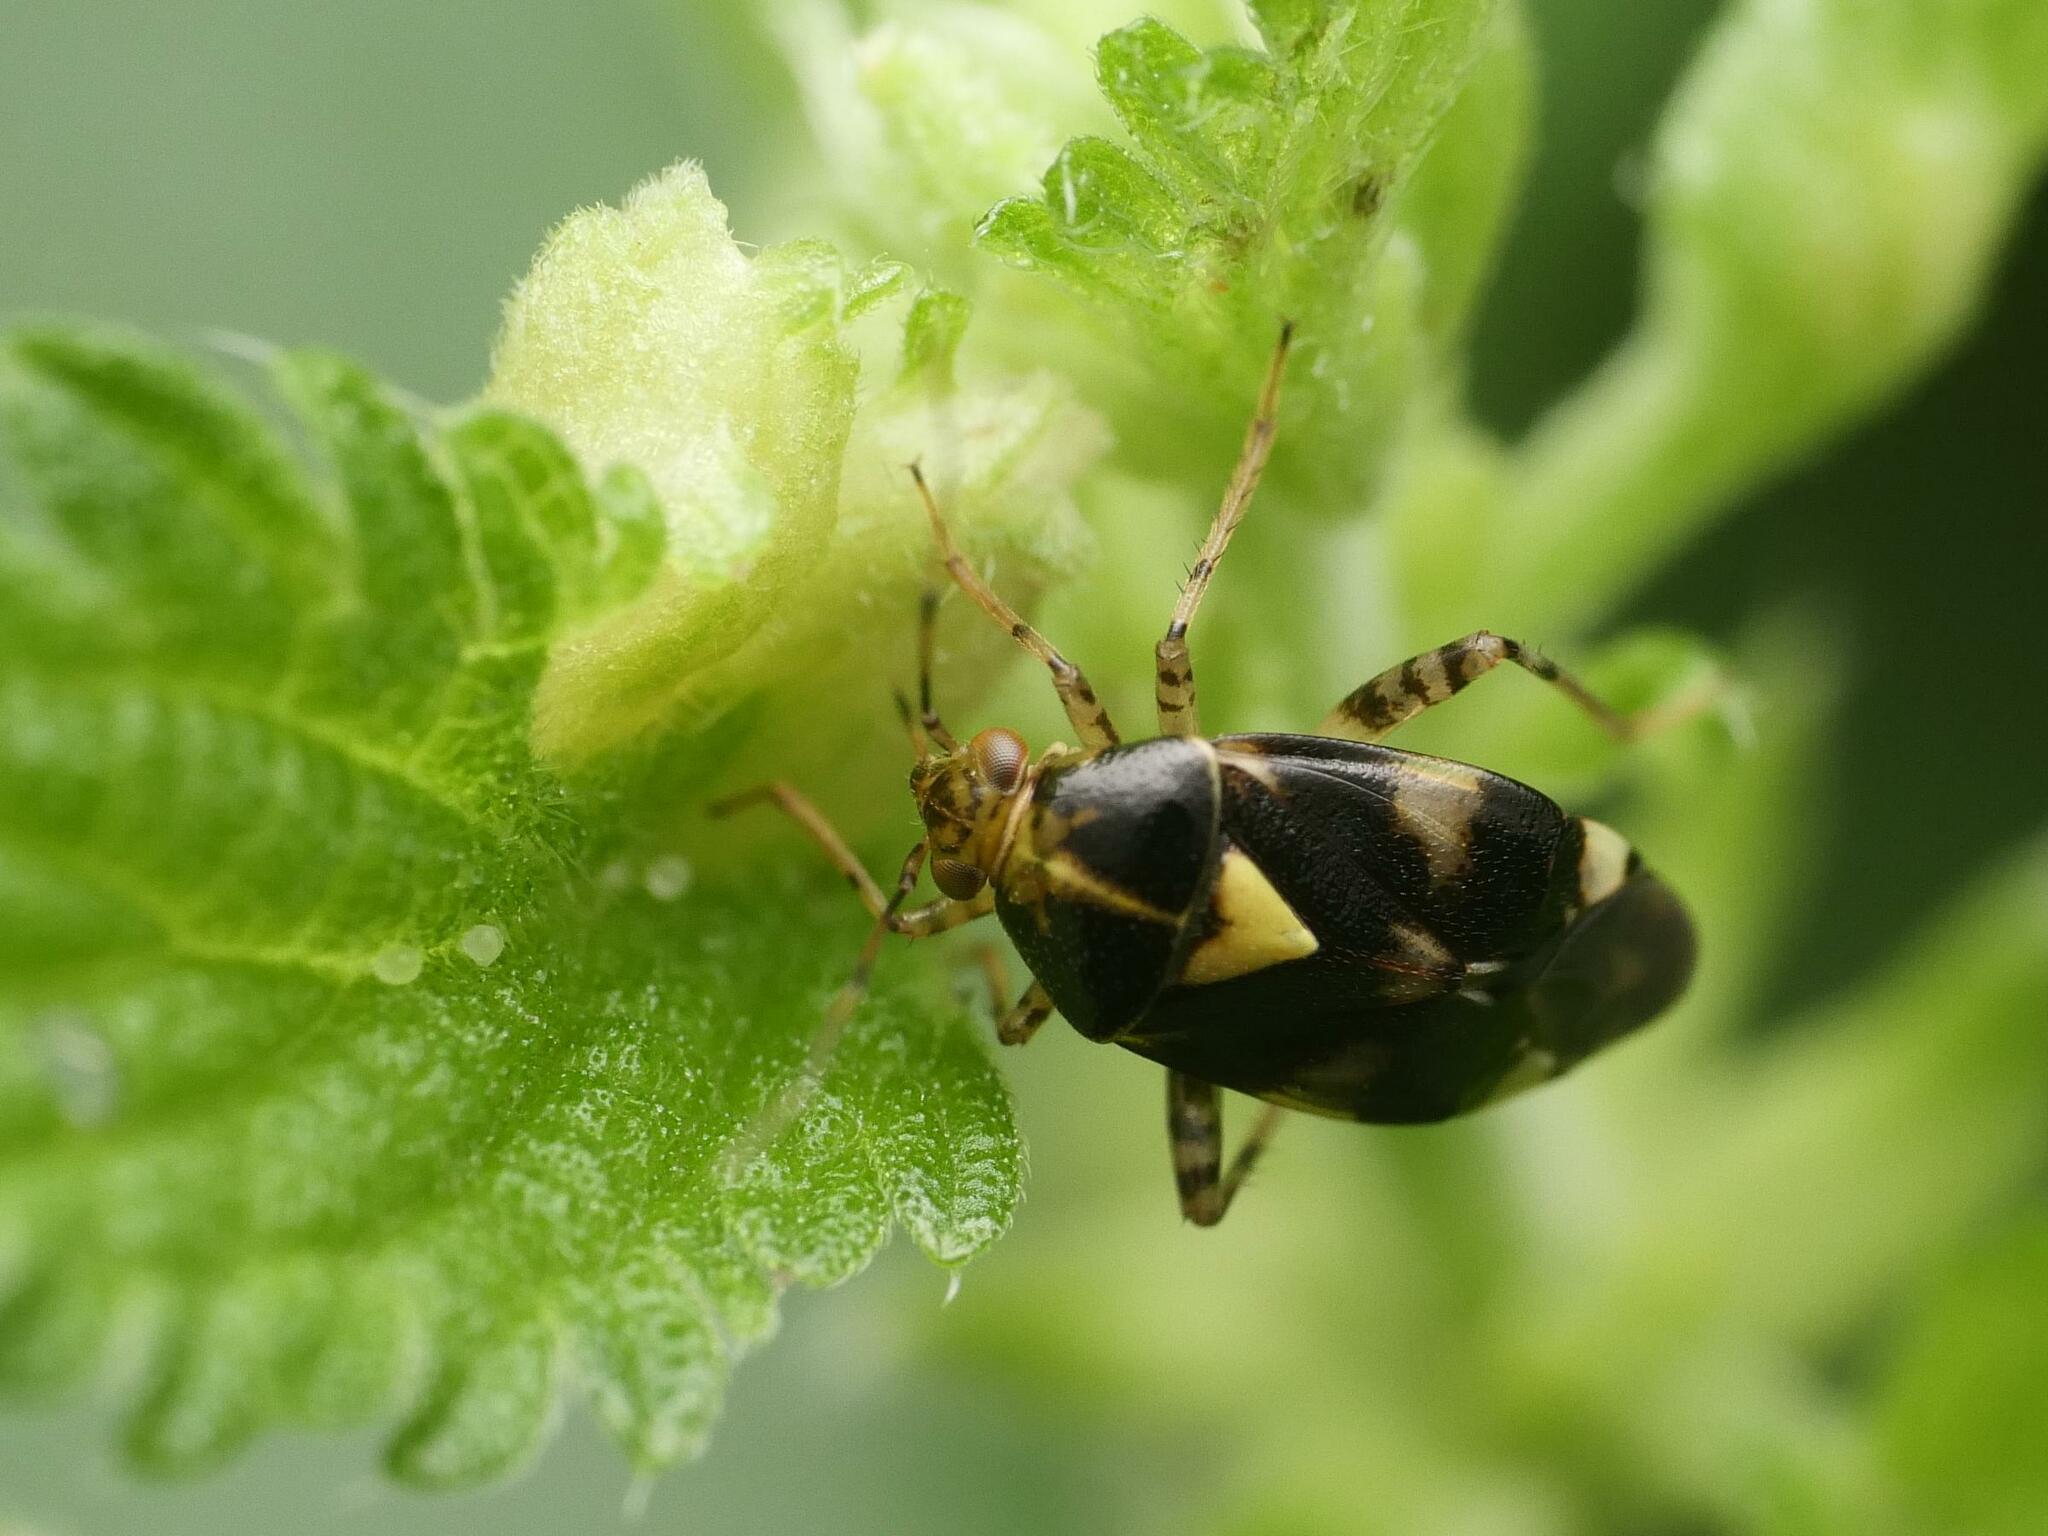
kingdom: Animalia
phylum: Arthropoda
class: Insecta
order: Hemiptera
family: Miridae
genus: Liocoris
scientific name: Liocoris tripustulatus
